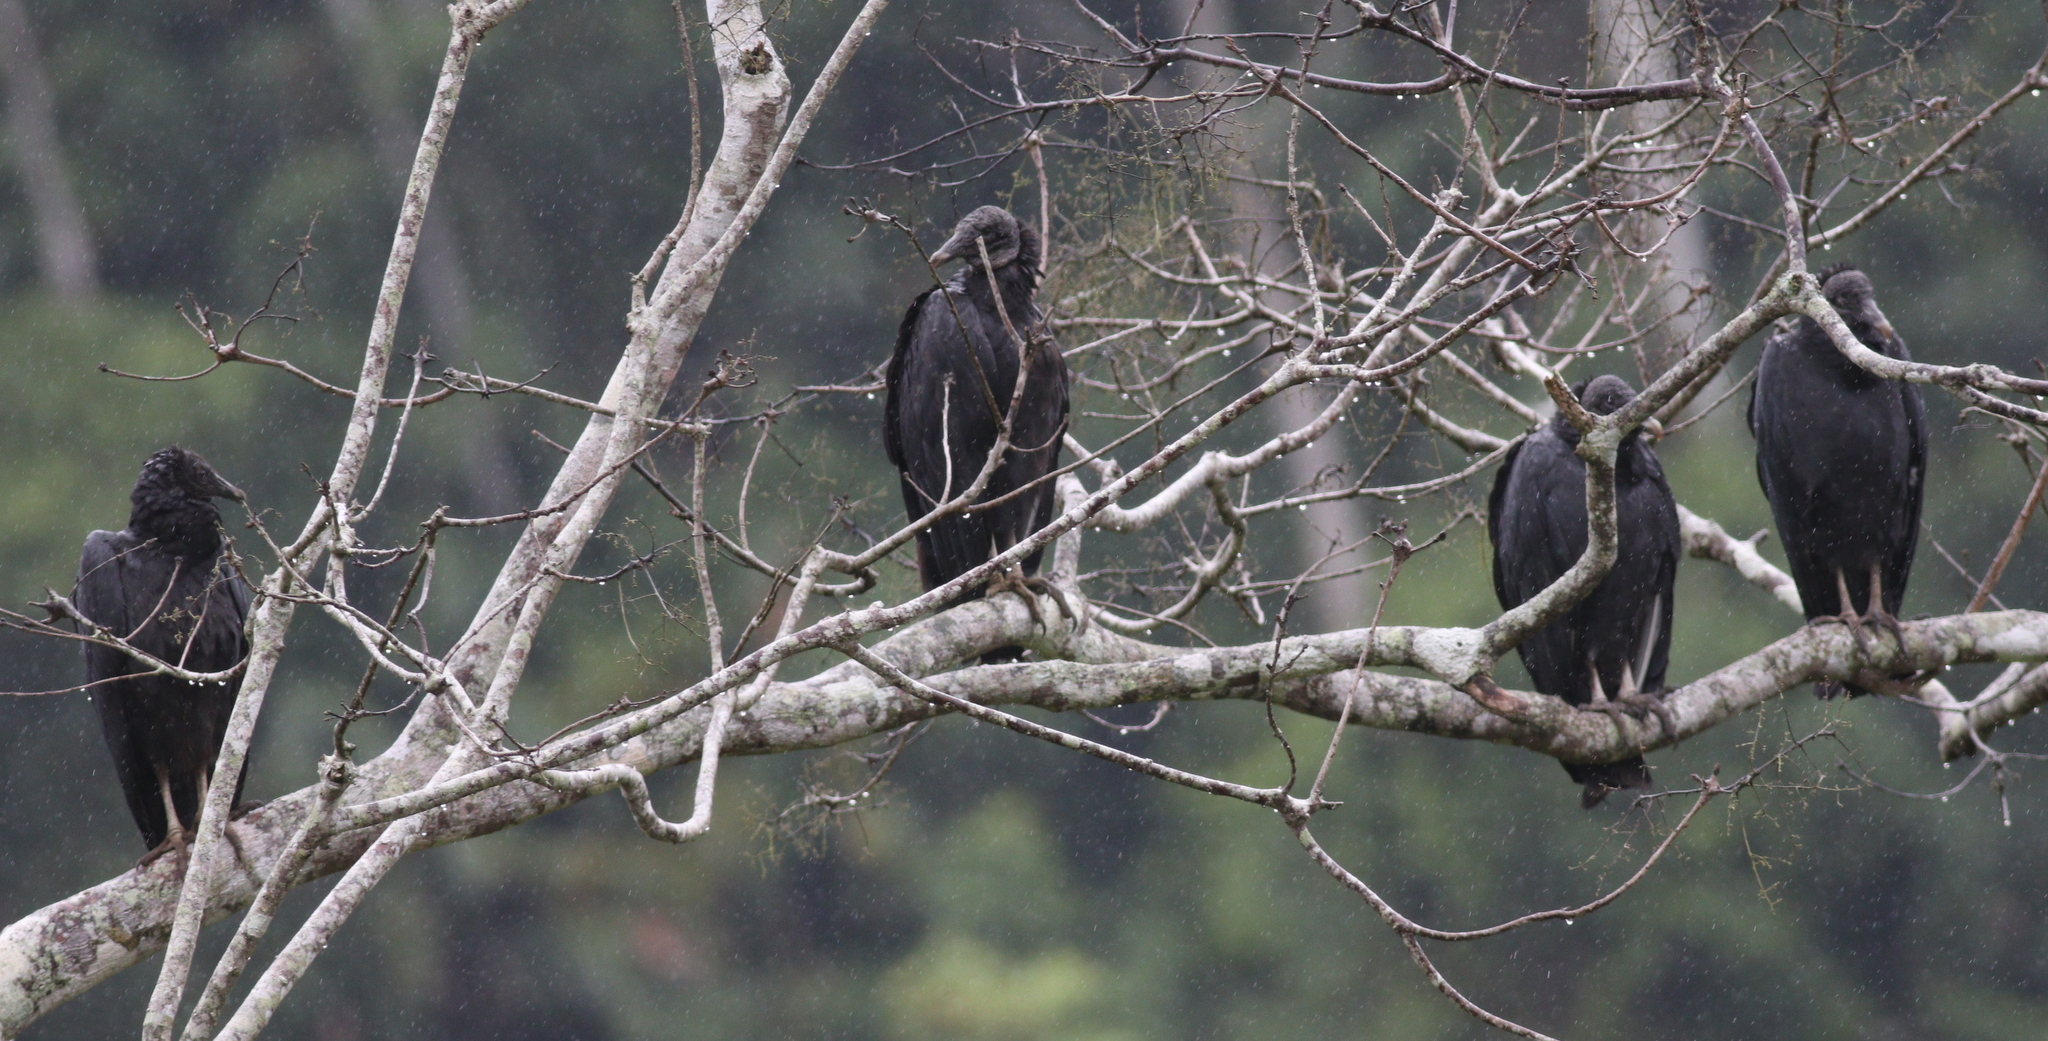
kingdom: Animalia
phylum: Chordata
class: Aves
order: Accipitriformes
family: Cathartidae
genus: Coragyps
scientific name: Coragyps atratus
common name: Black vulture
